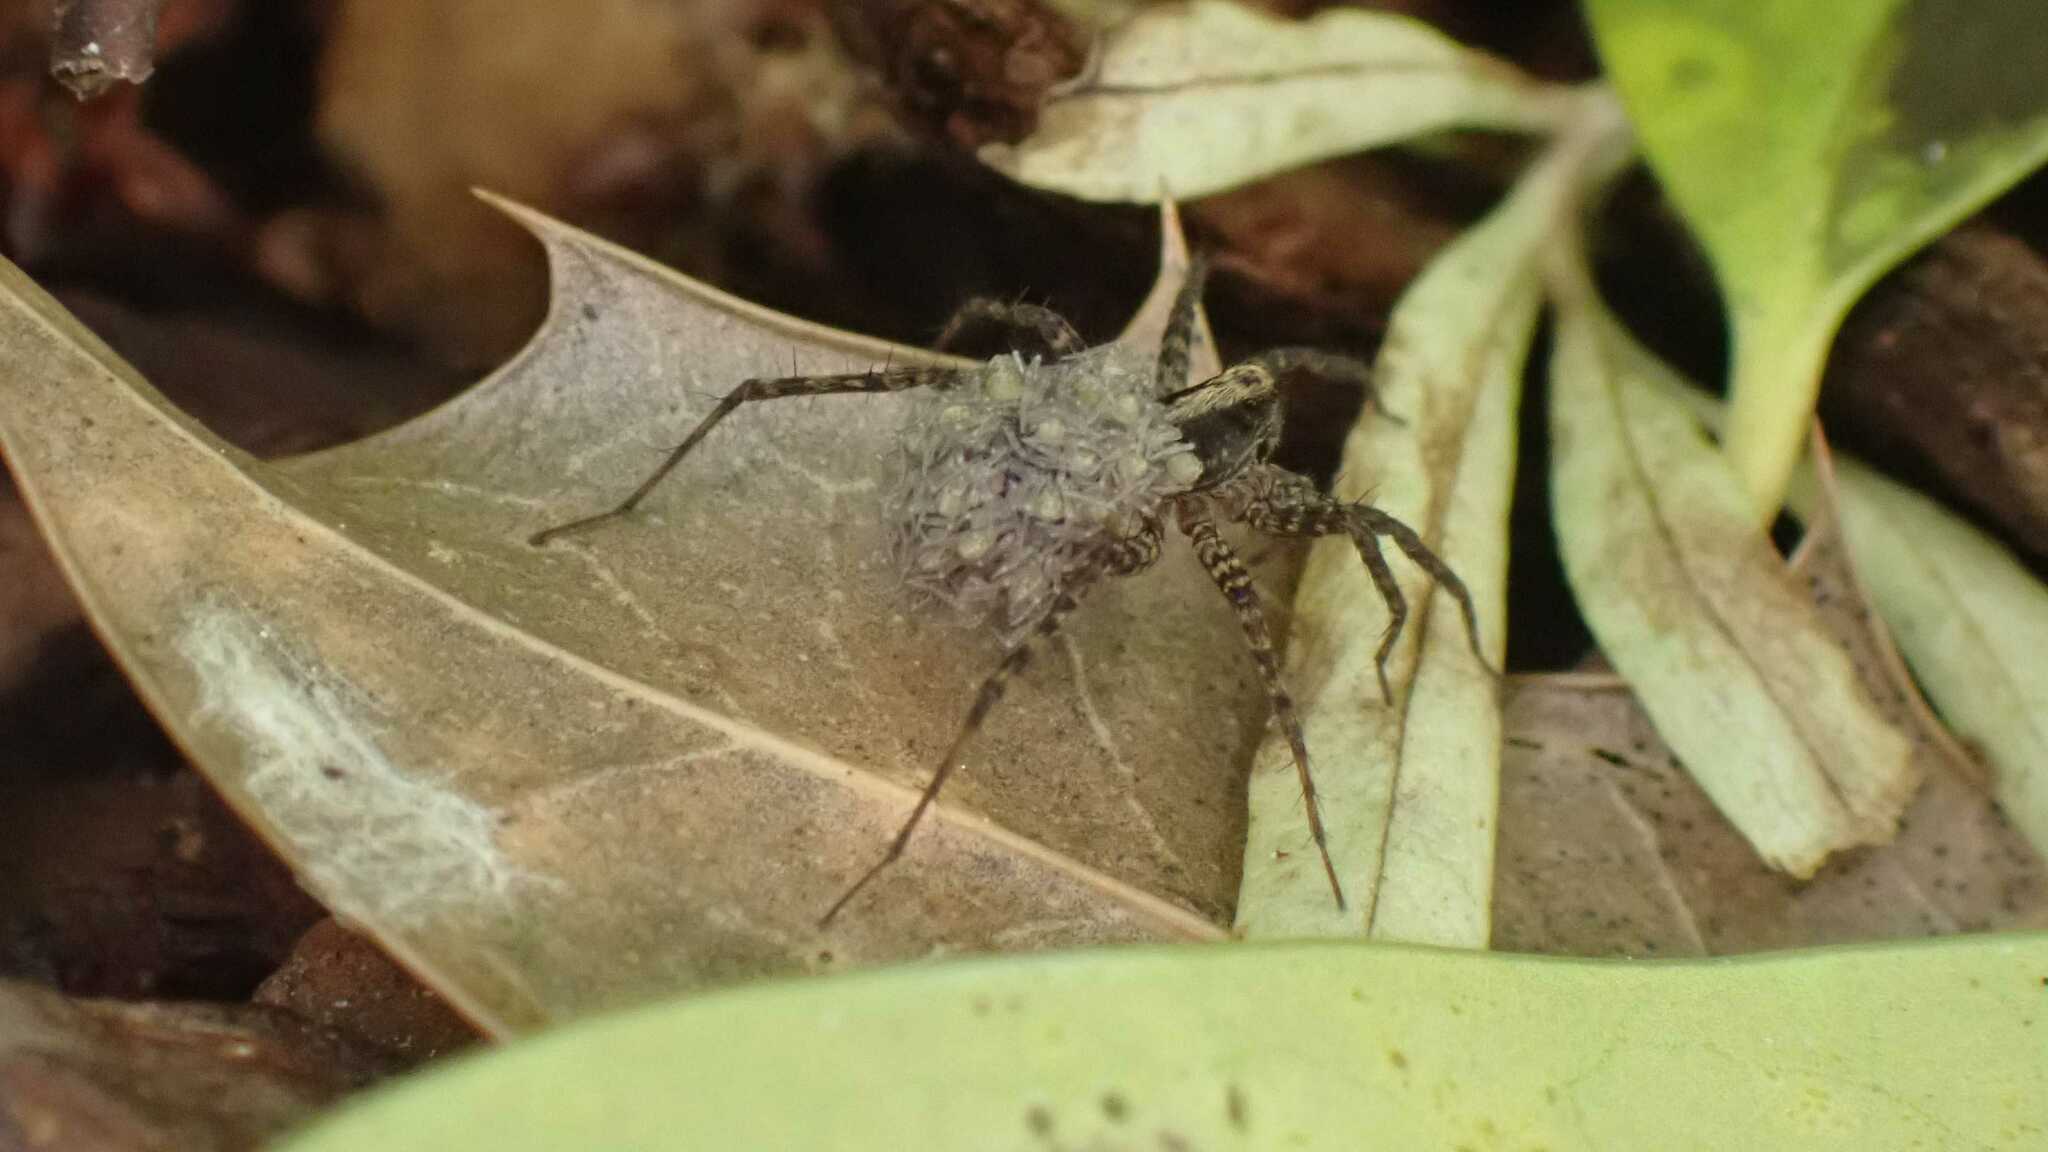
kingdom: Animalia
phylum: Arthropoda
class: Arachnida
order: Araneae
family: Lycosidae
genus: Pardosa
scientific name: Pardosa
